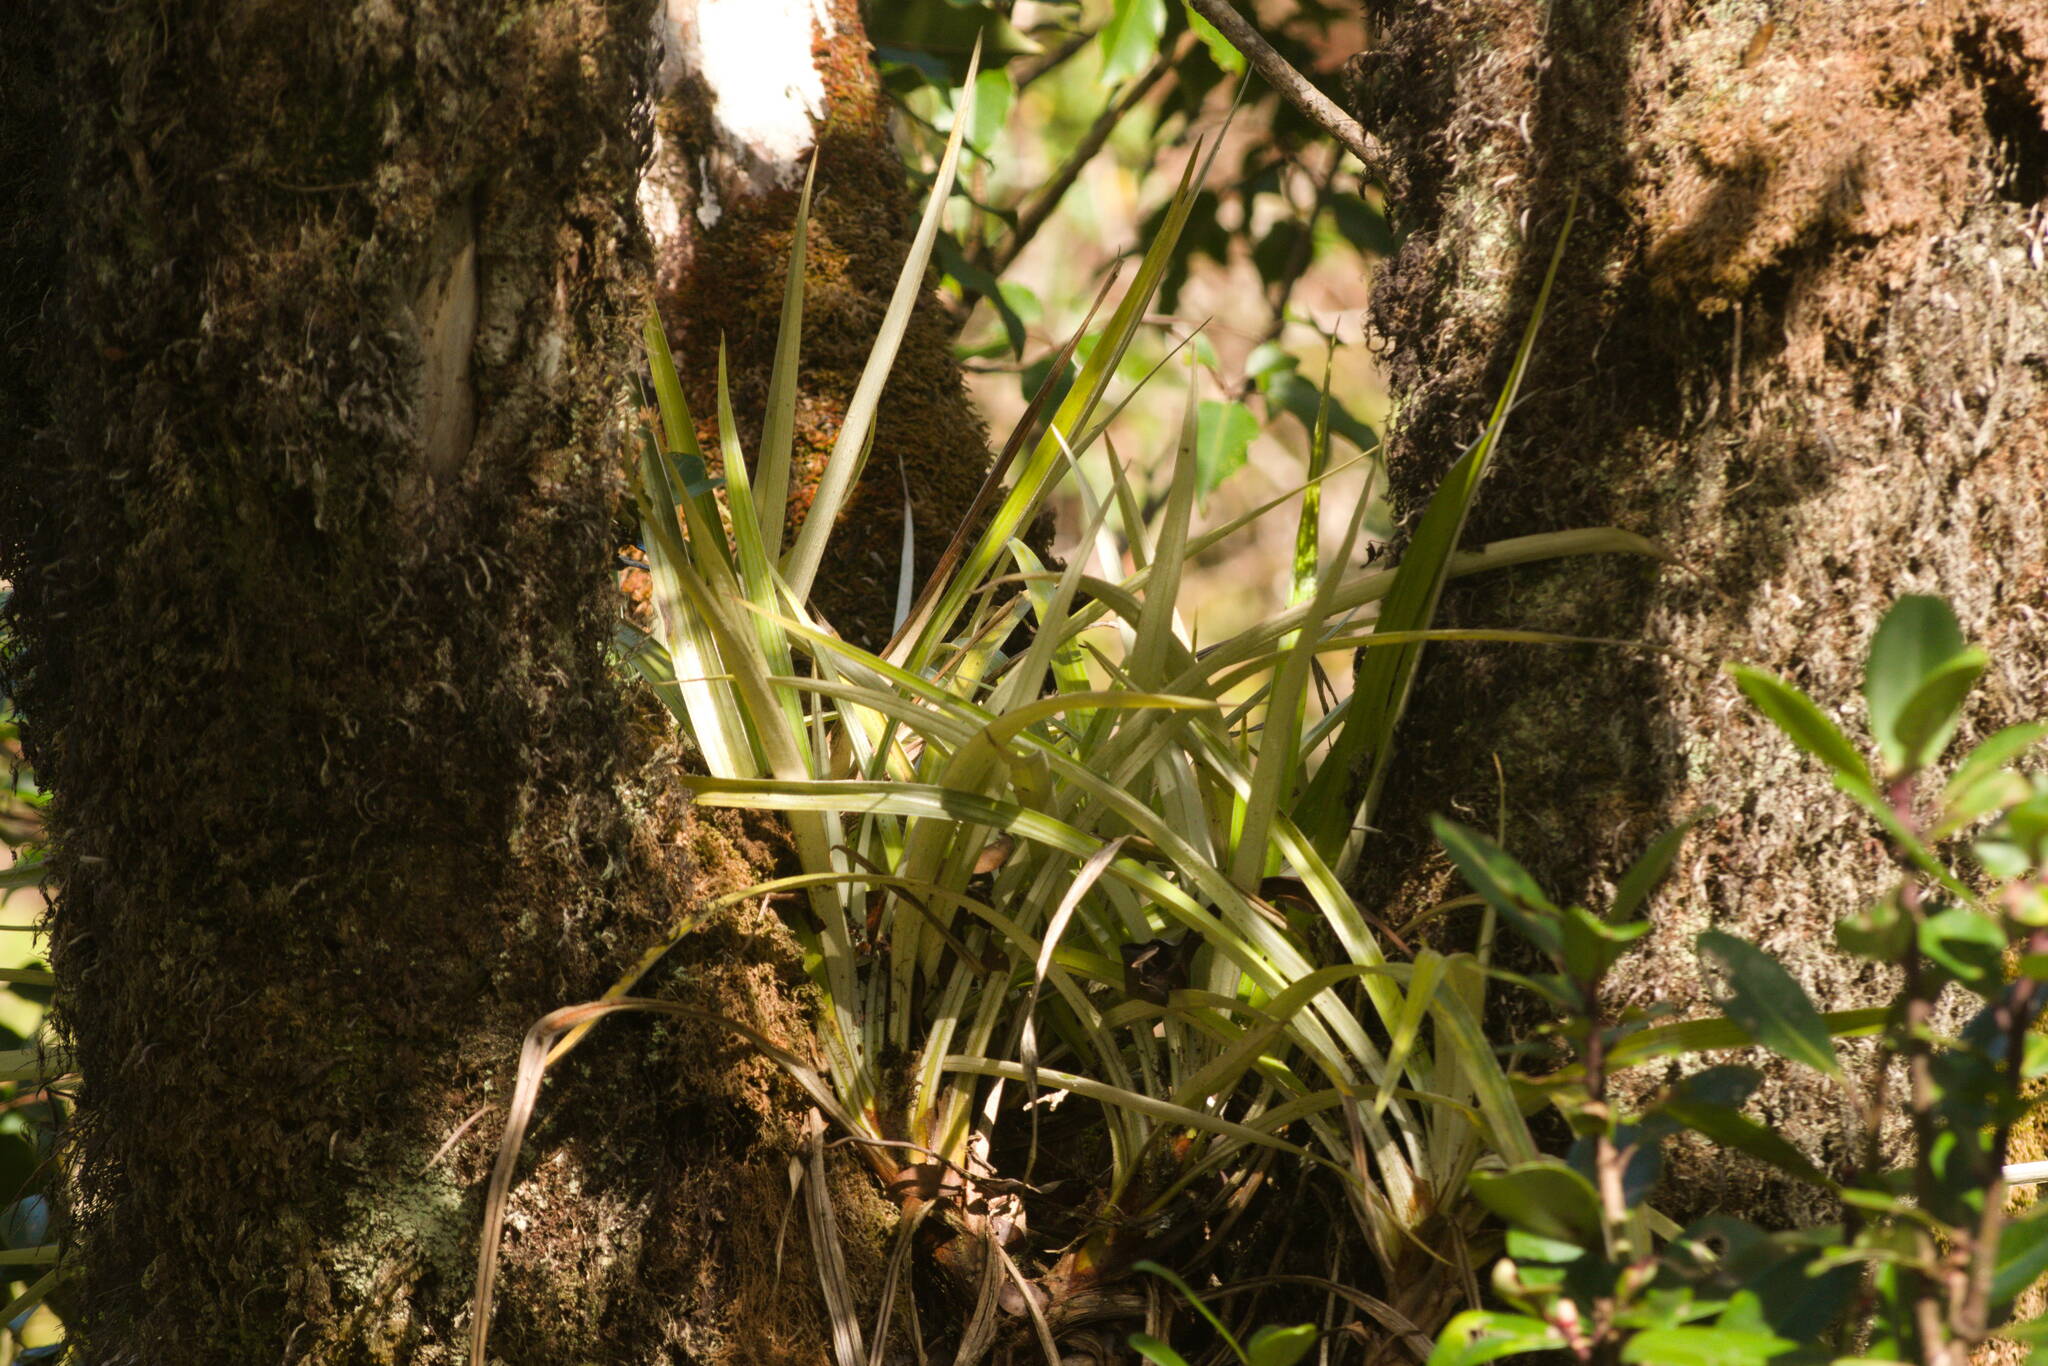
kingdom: Plantae
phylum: Tracheophyta
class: Liliopsida
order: Asparagales
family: Asteliaceae
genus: Astelia
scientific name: Astelia menziesiana
